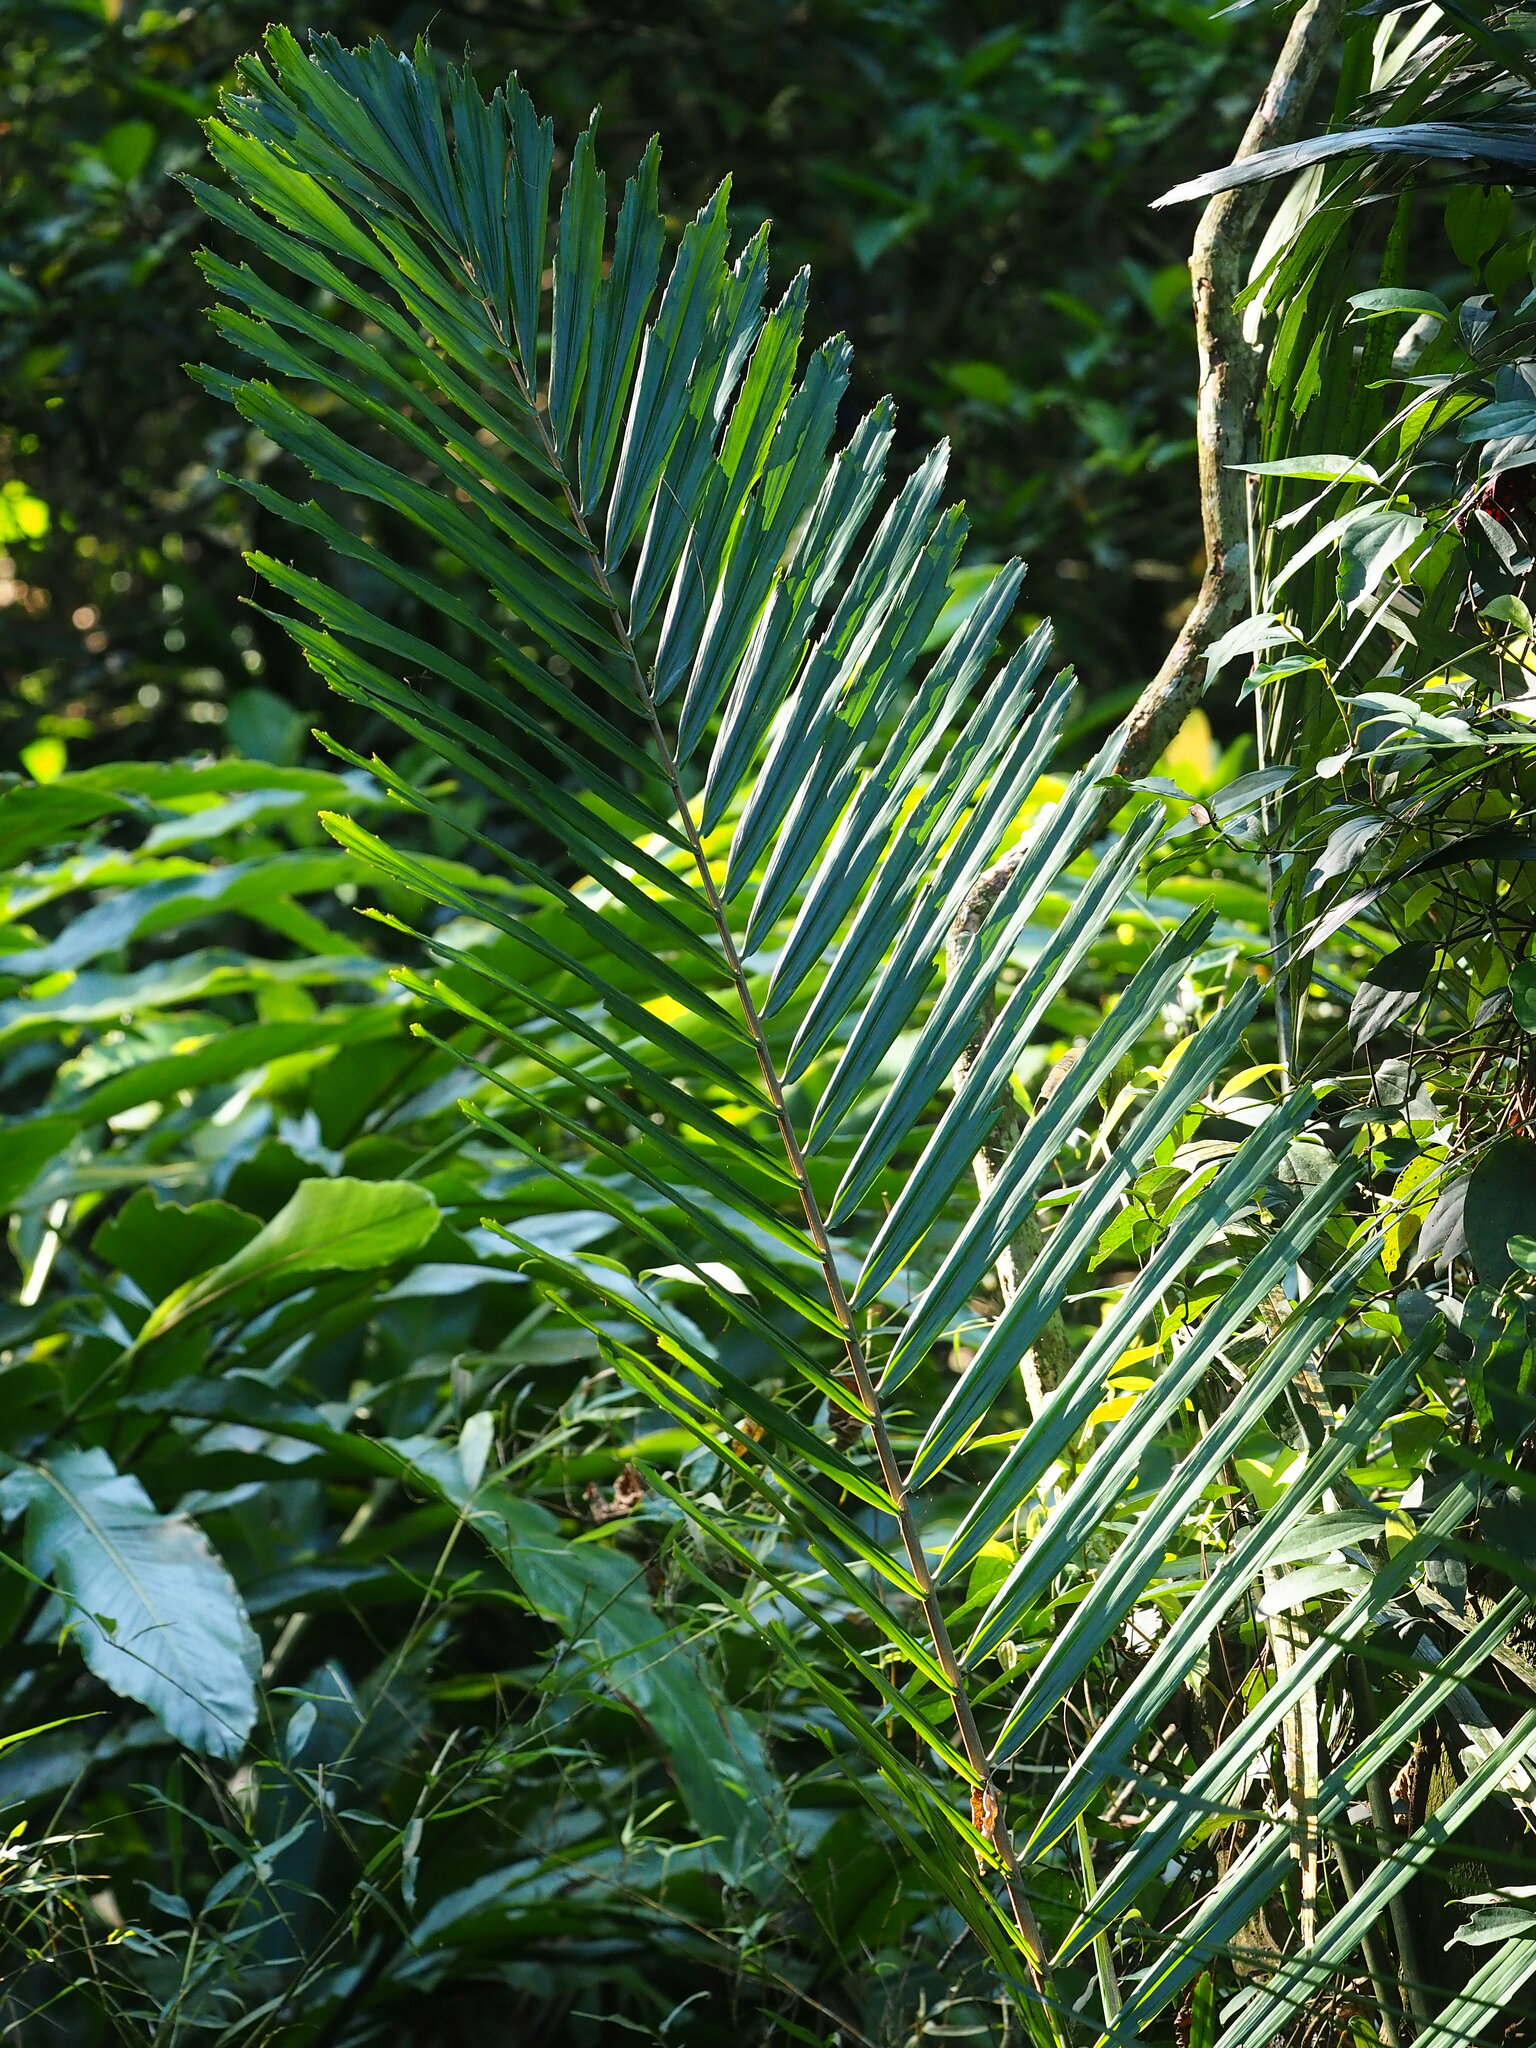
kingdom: Plantae
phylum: Tracheophyta
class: Liliopsida
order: Arecales
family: Arecaceae
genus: Arenga
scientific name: Arenga engleri
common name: Formosan sugar palm
